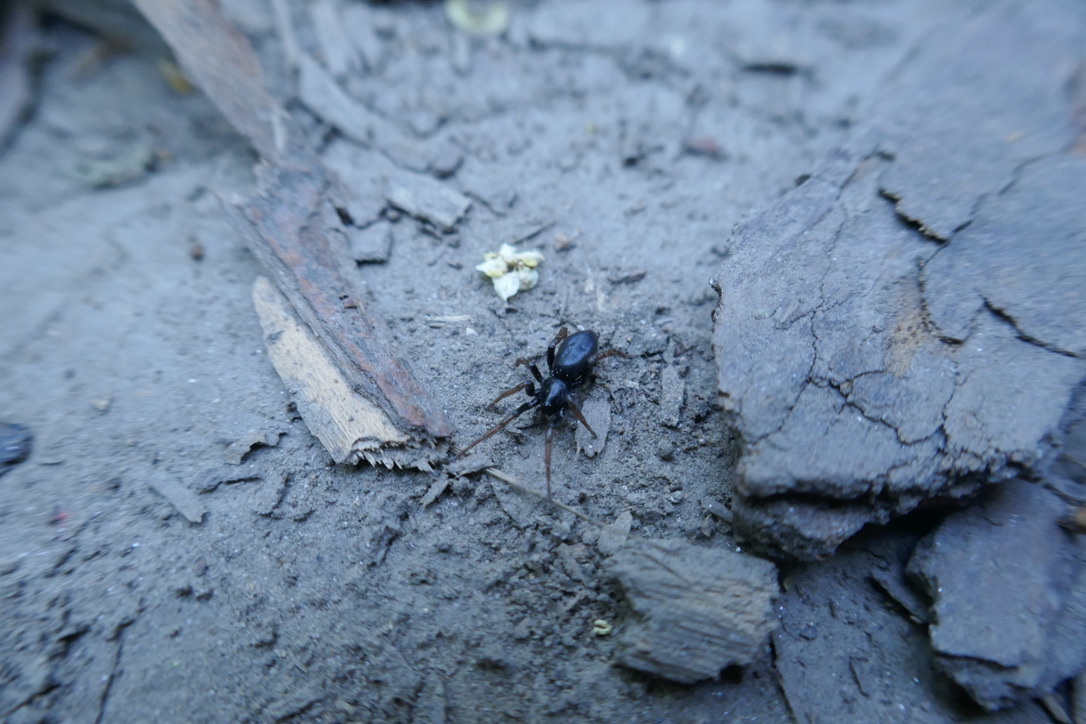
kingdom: Animalia
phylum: Arthropoda
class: Arachnida
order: Araneae
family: Gnaphosidae
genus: Trachyzelotes
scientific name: Trachyzelotes pedestris
